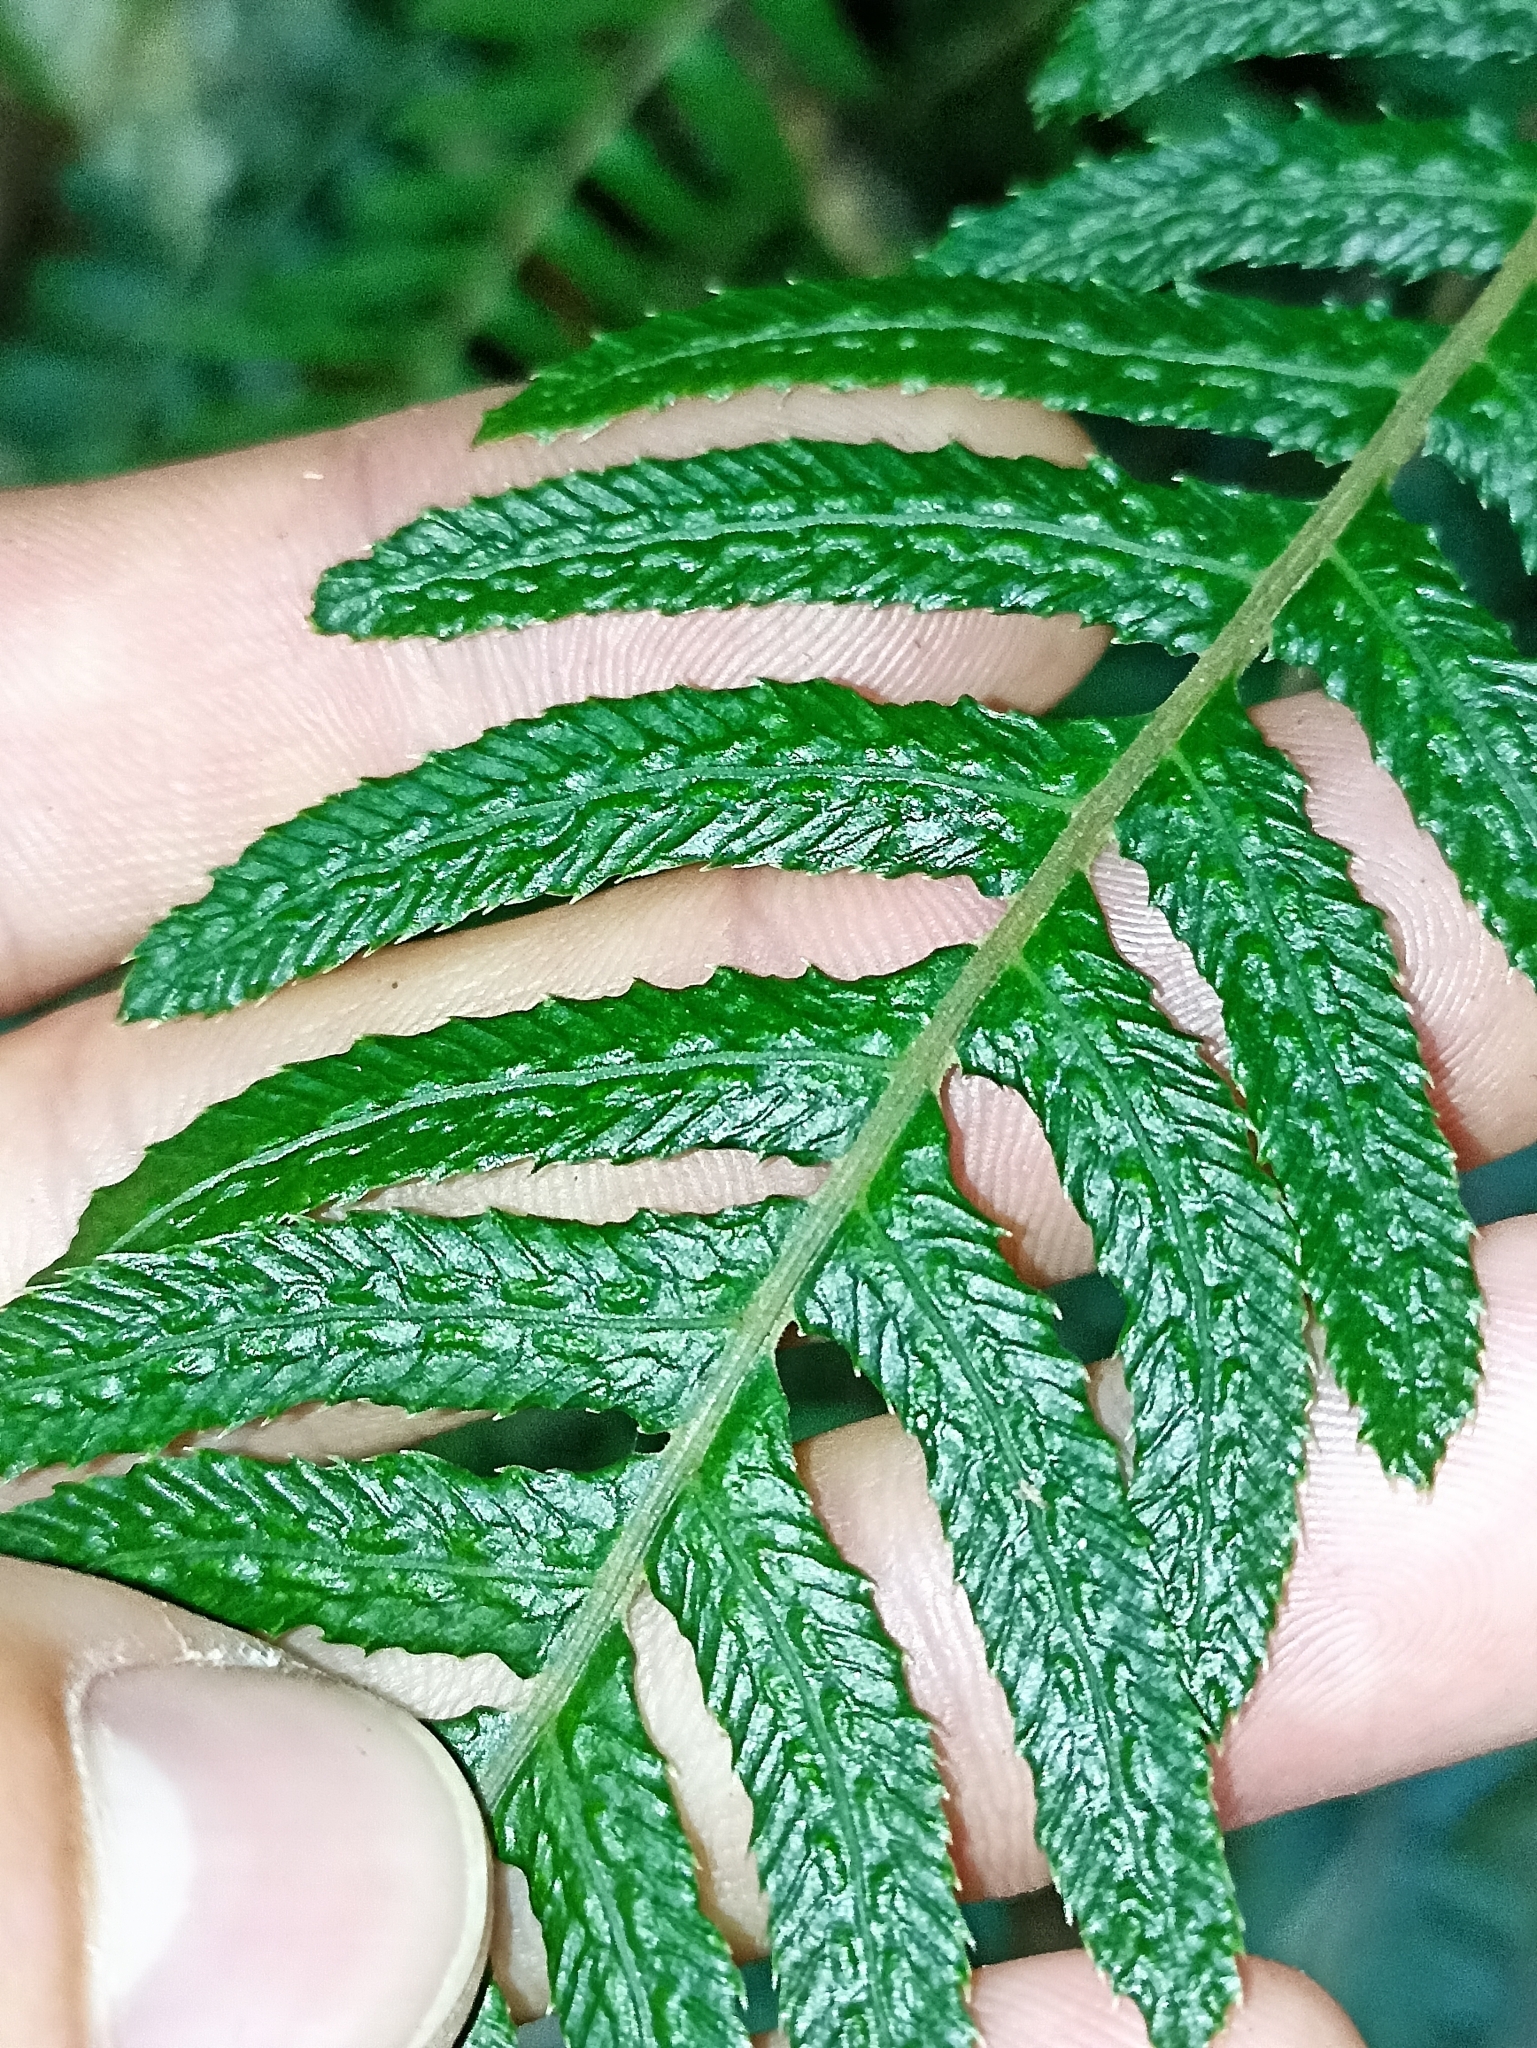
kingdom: Plantae
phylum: Tracheophyta
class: Polypodiopsida
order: Polypodiales
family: Blechnaceae
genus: Doodia
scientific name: Doodia australis
